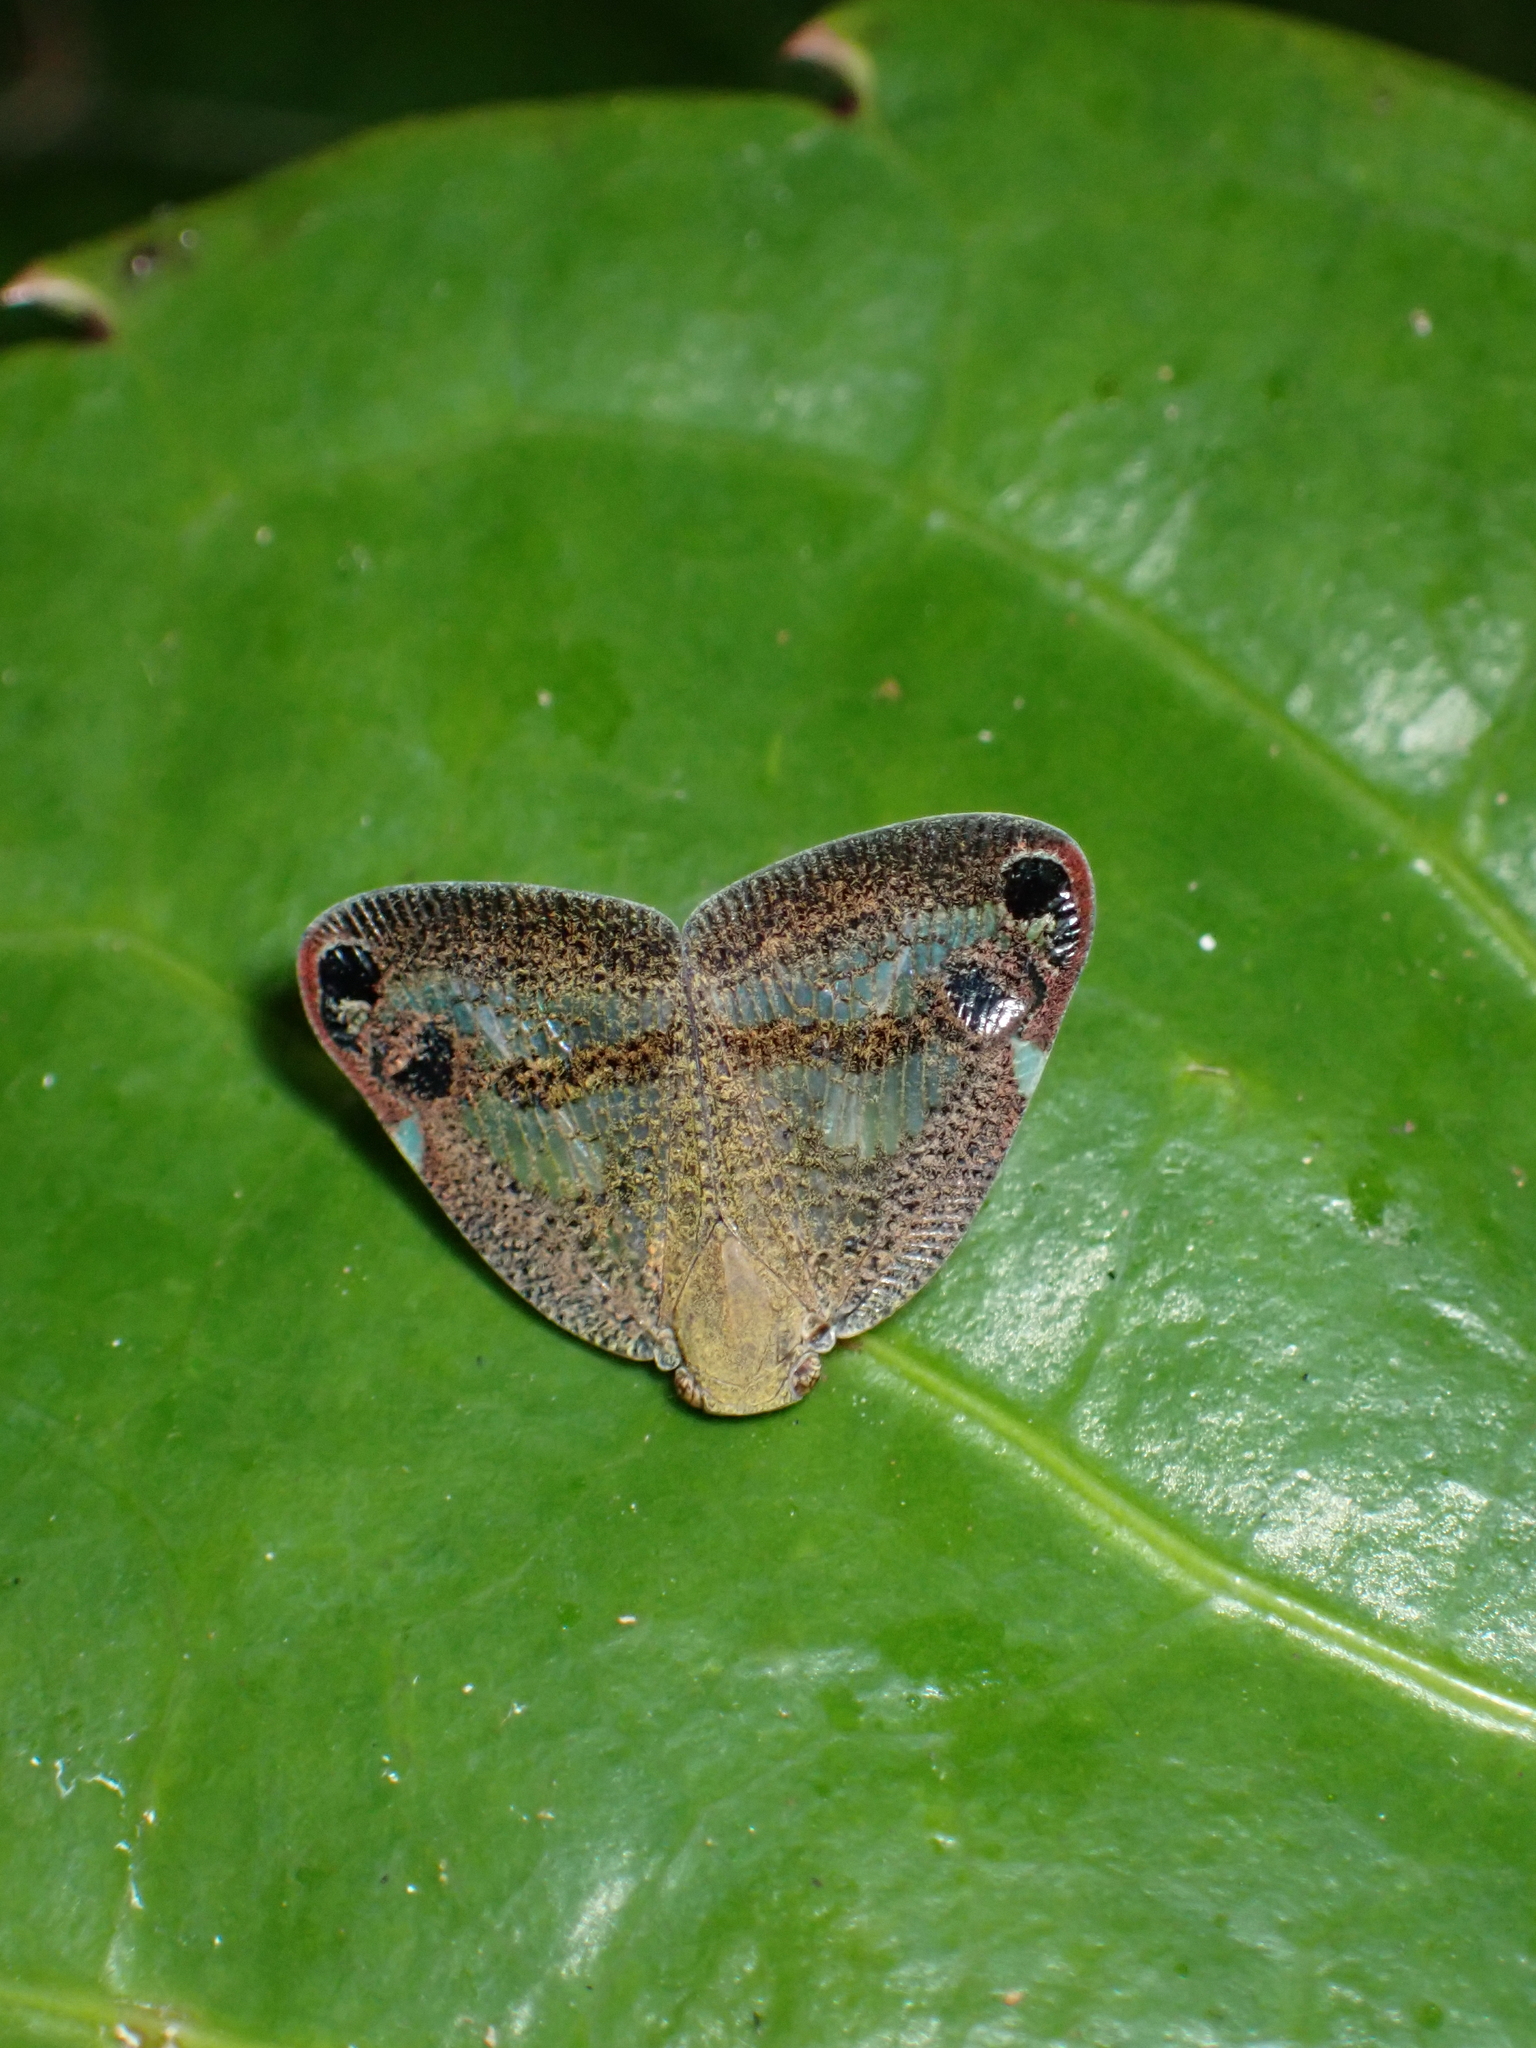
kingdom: Animalia
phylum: Arthropoda
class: Insecta
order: Hemiptera
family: Ricaniidae
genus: Parapiromis
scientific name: Parapiromis translucida
